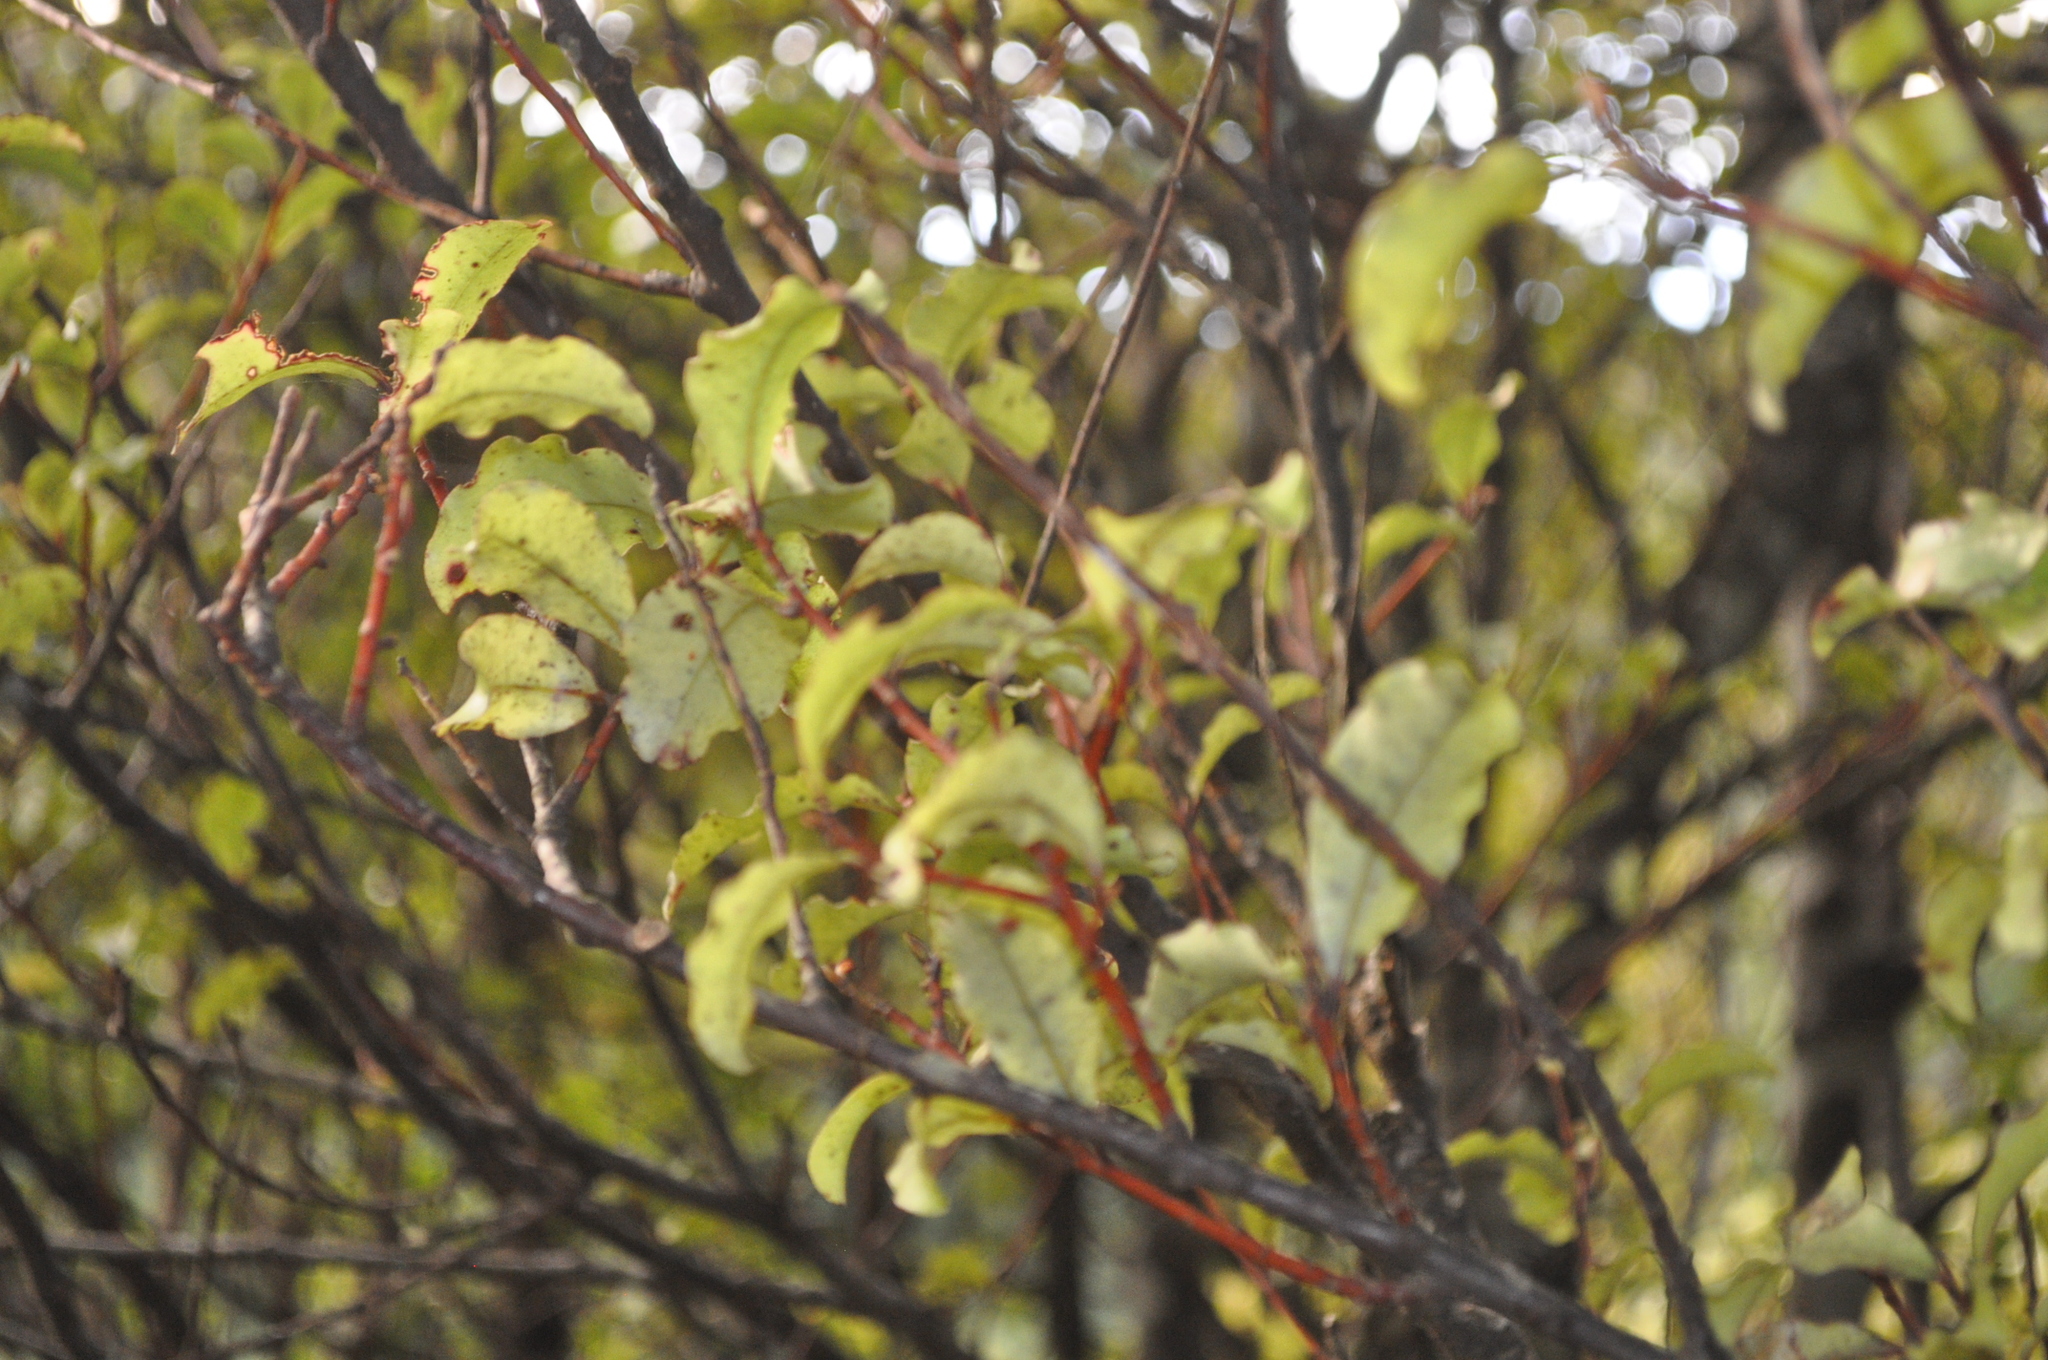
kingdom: Plantae
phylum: Tracheophyta
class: Magnoliopsida
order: Ericales
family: Primulaceae
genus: Myrsine
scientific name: Myrsine australis
